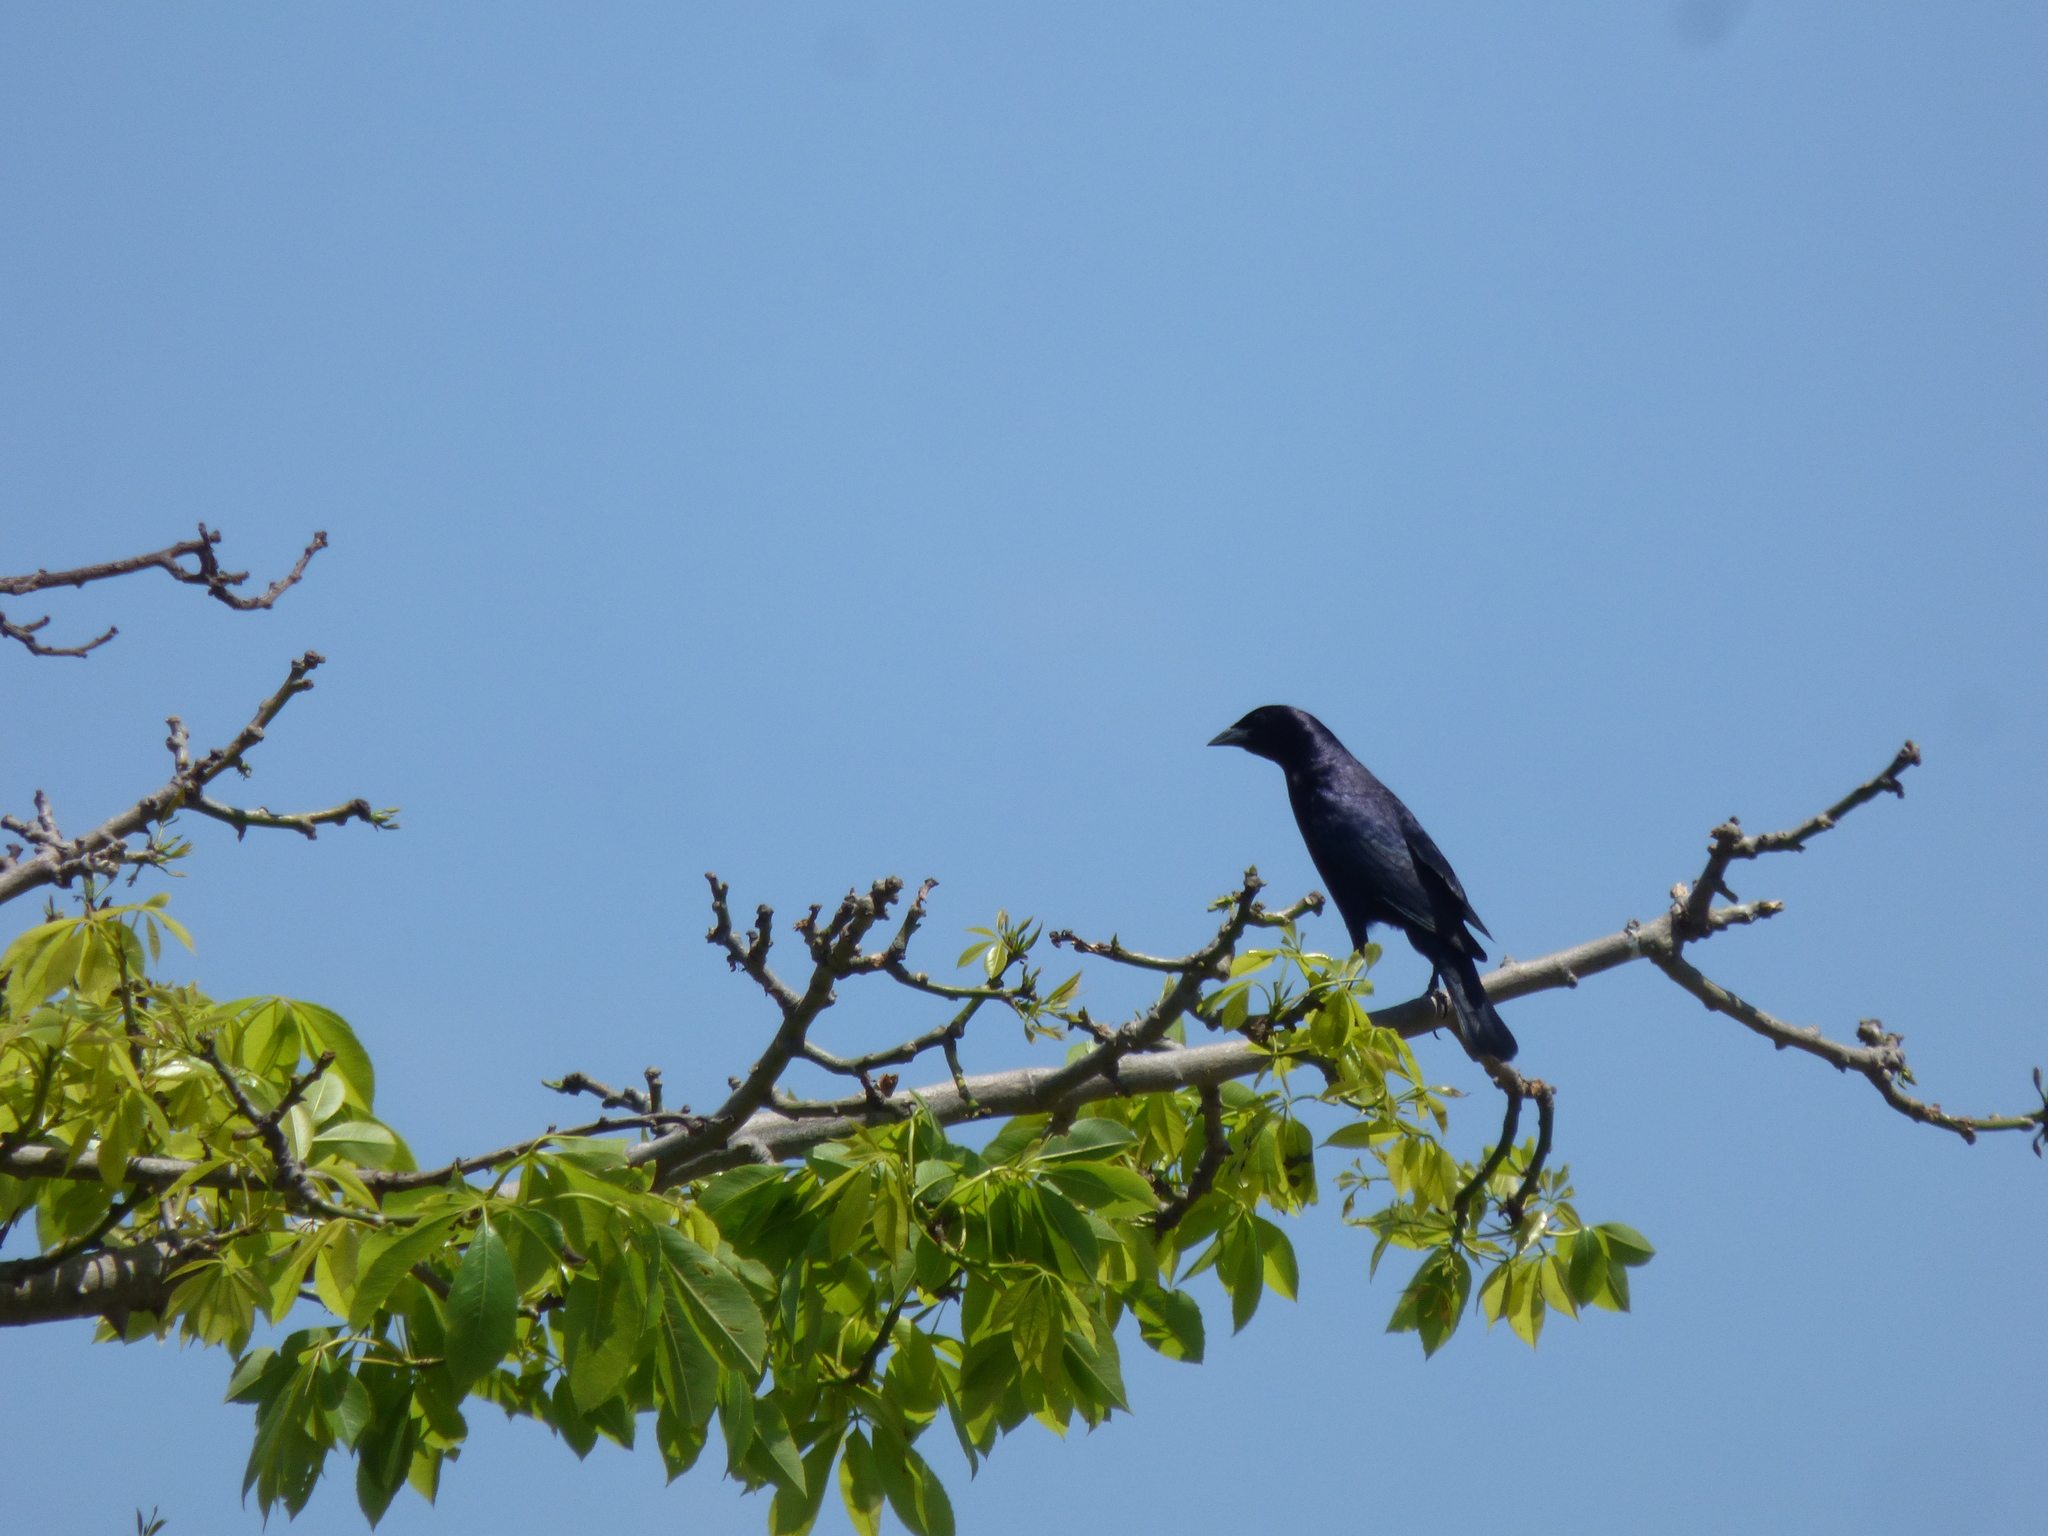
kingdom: Animalia
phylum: Chordata
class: Aves
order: Passeriformes
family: Icteridae
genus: Molothrus
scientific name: Molothrus bonariensis
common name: Shiny cowbird
